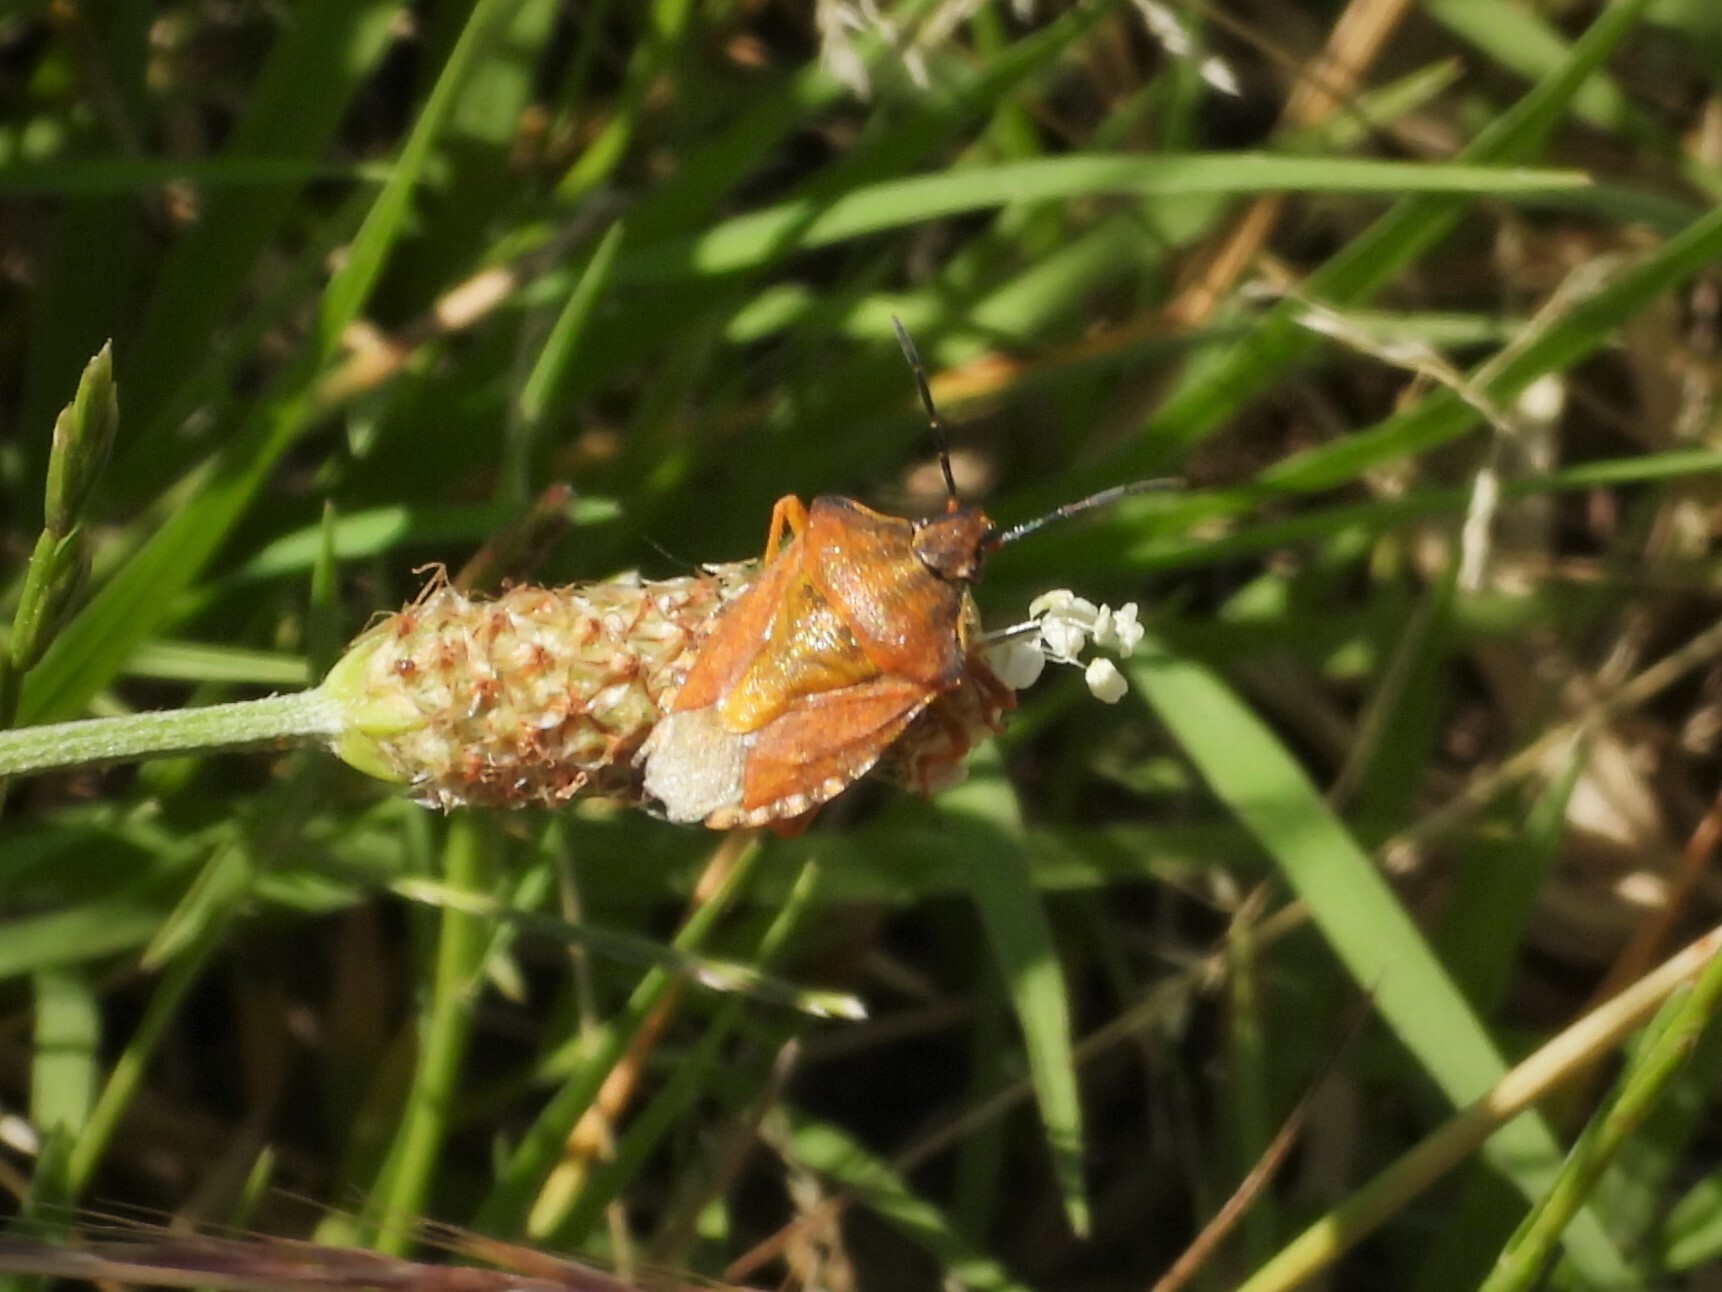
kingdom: Animalia
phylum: Arthropoda
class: Insecta
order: Hemiptera
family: Pentatomidae
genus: Carpocoris
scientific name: Carpocoris purpureipennis
